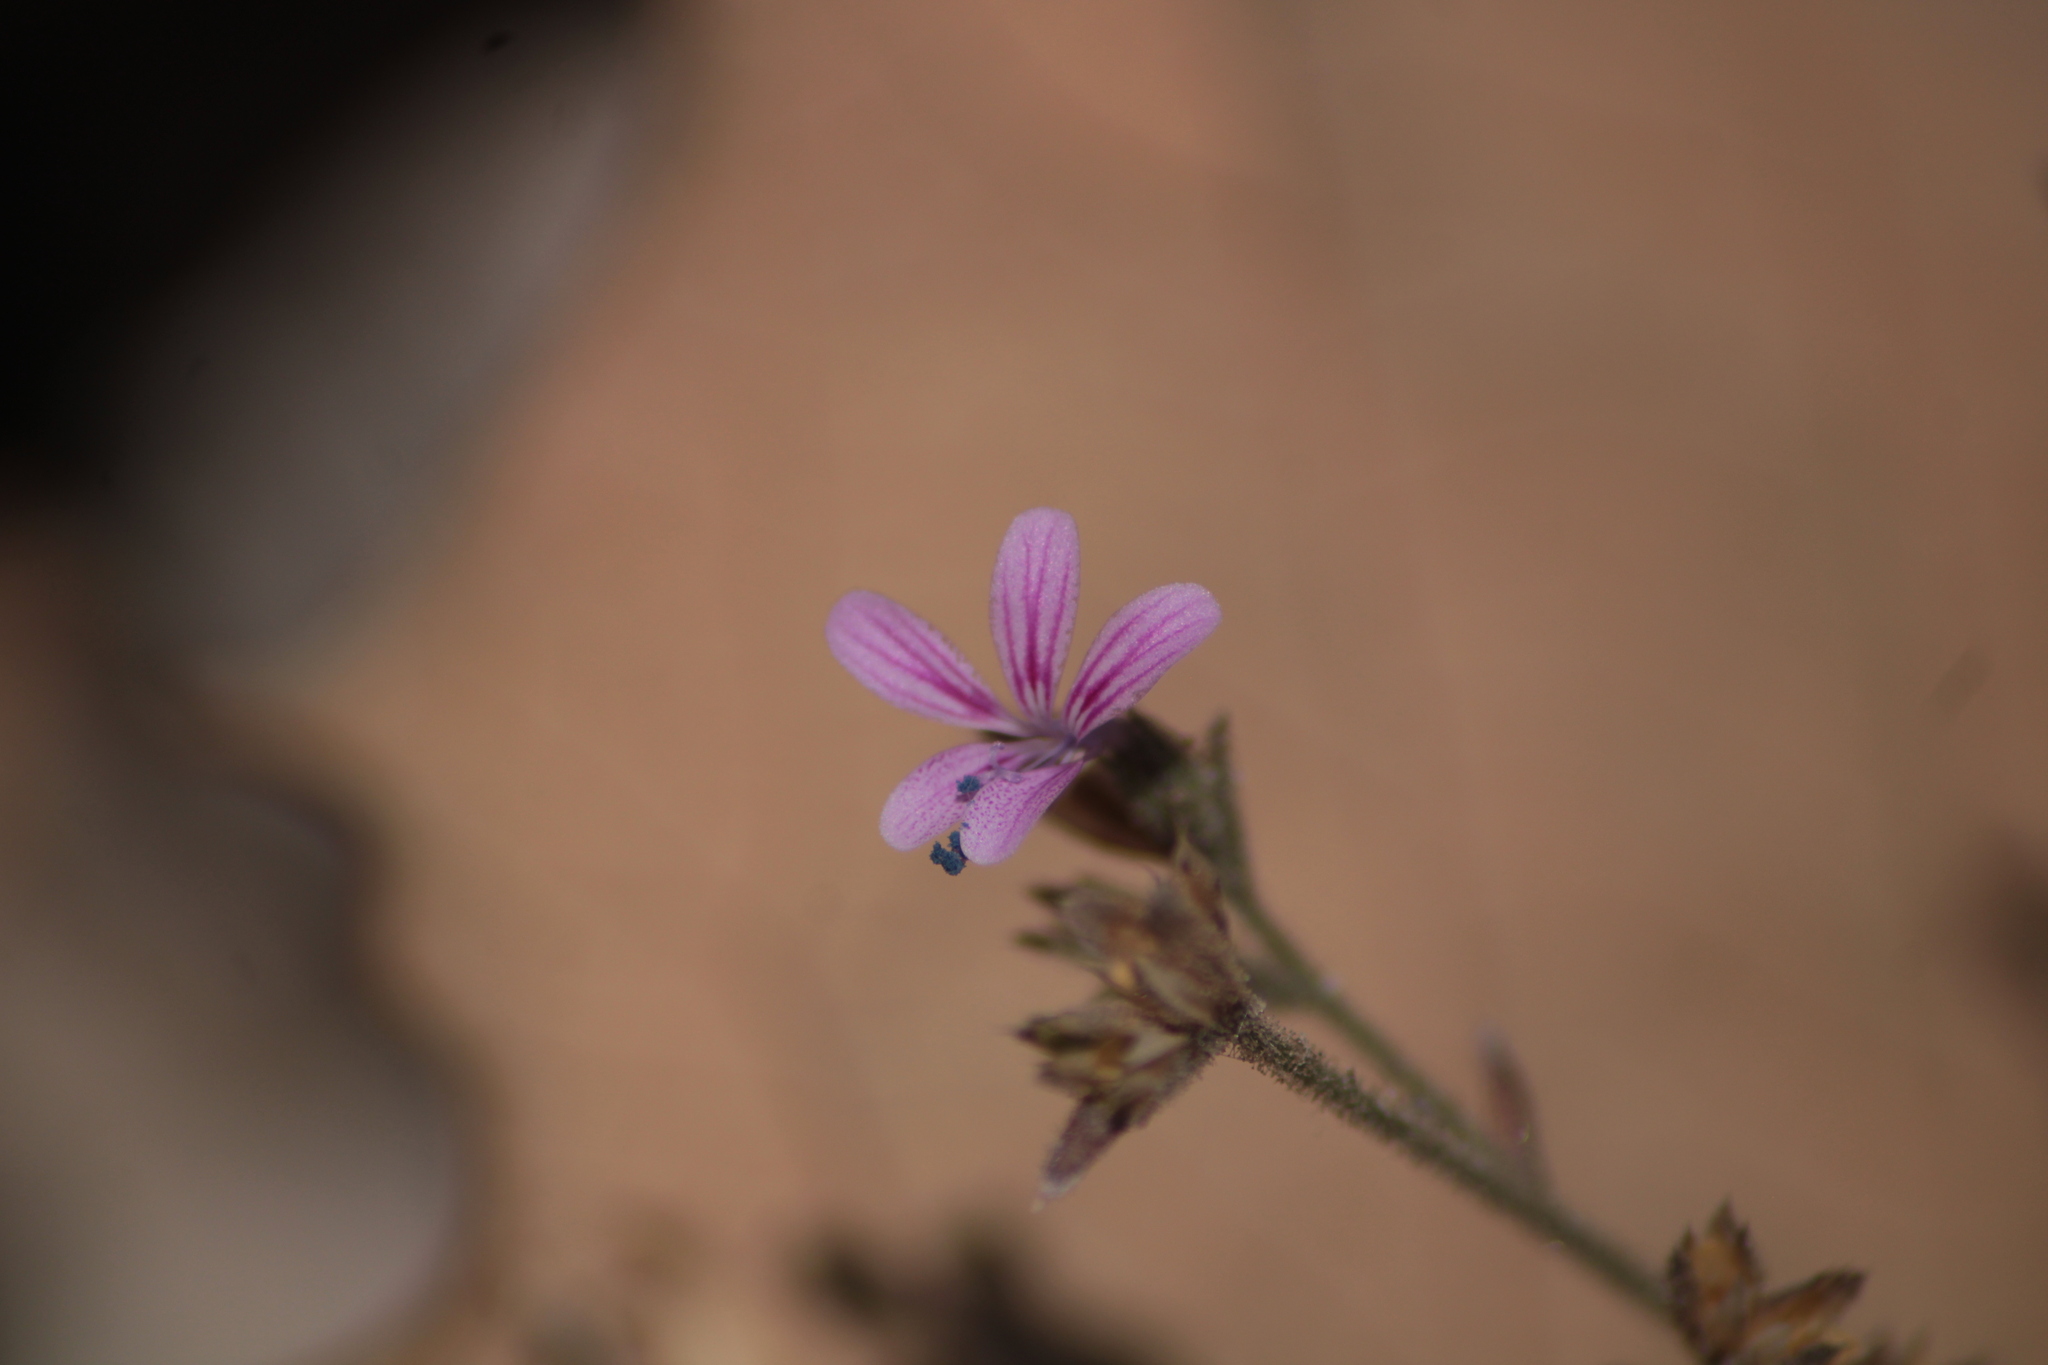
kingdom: Plantae
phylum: Tracheophyta
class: Magnoliopsida
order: Ericales
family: Polemoniaceae
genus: Loeselia
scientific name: Loeselia glandulosa
